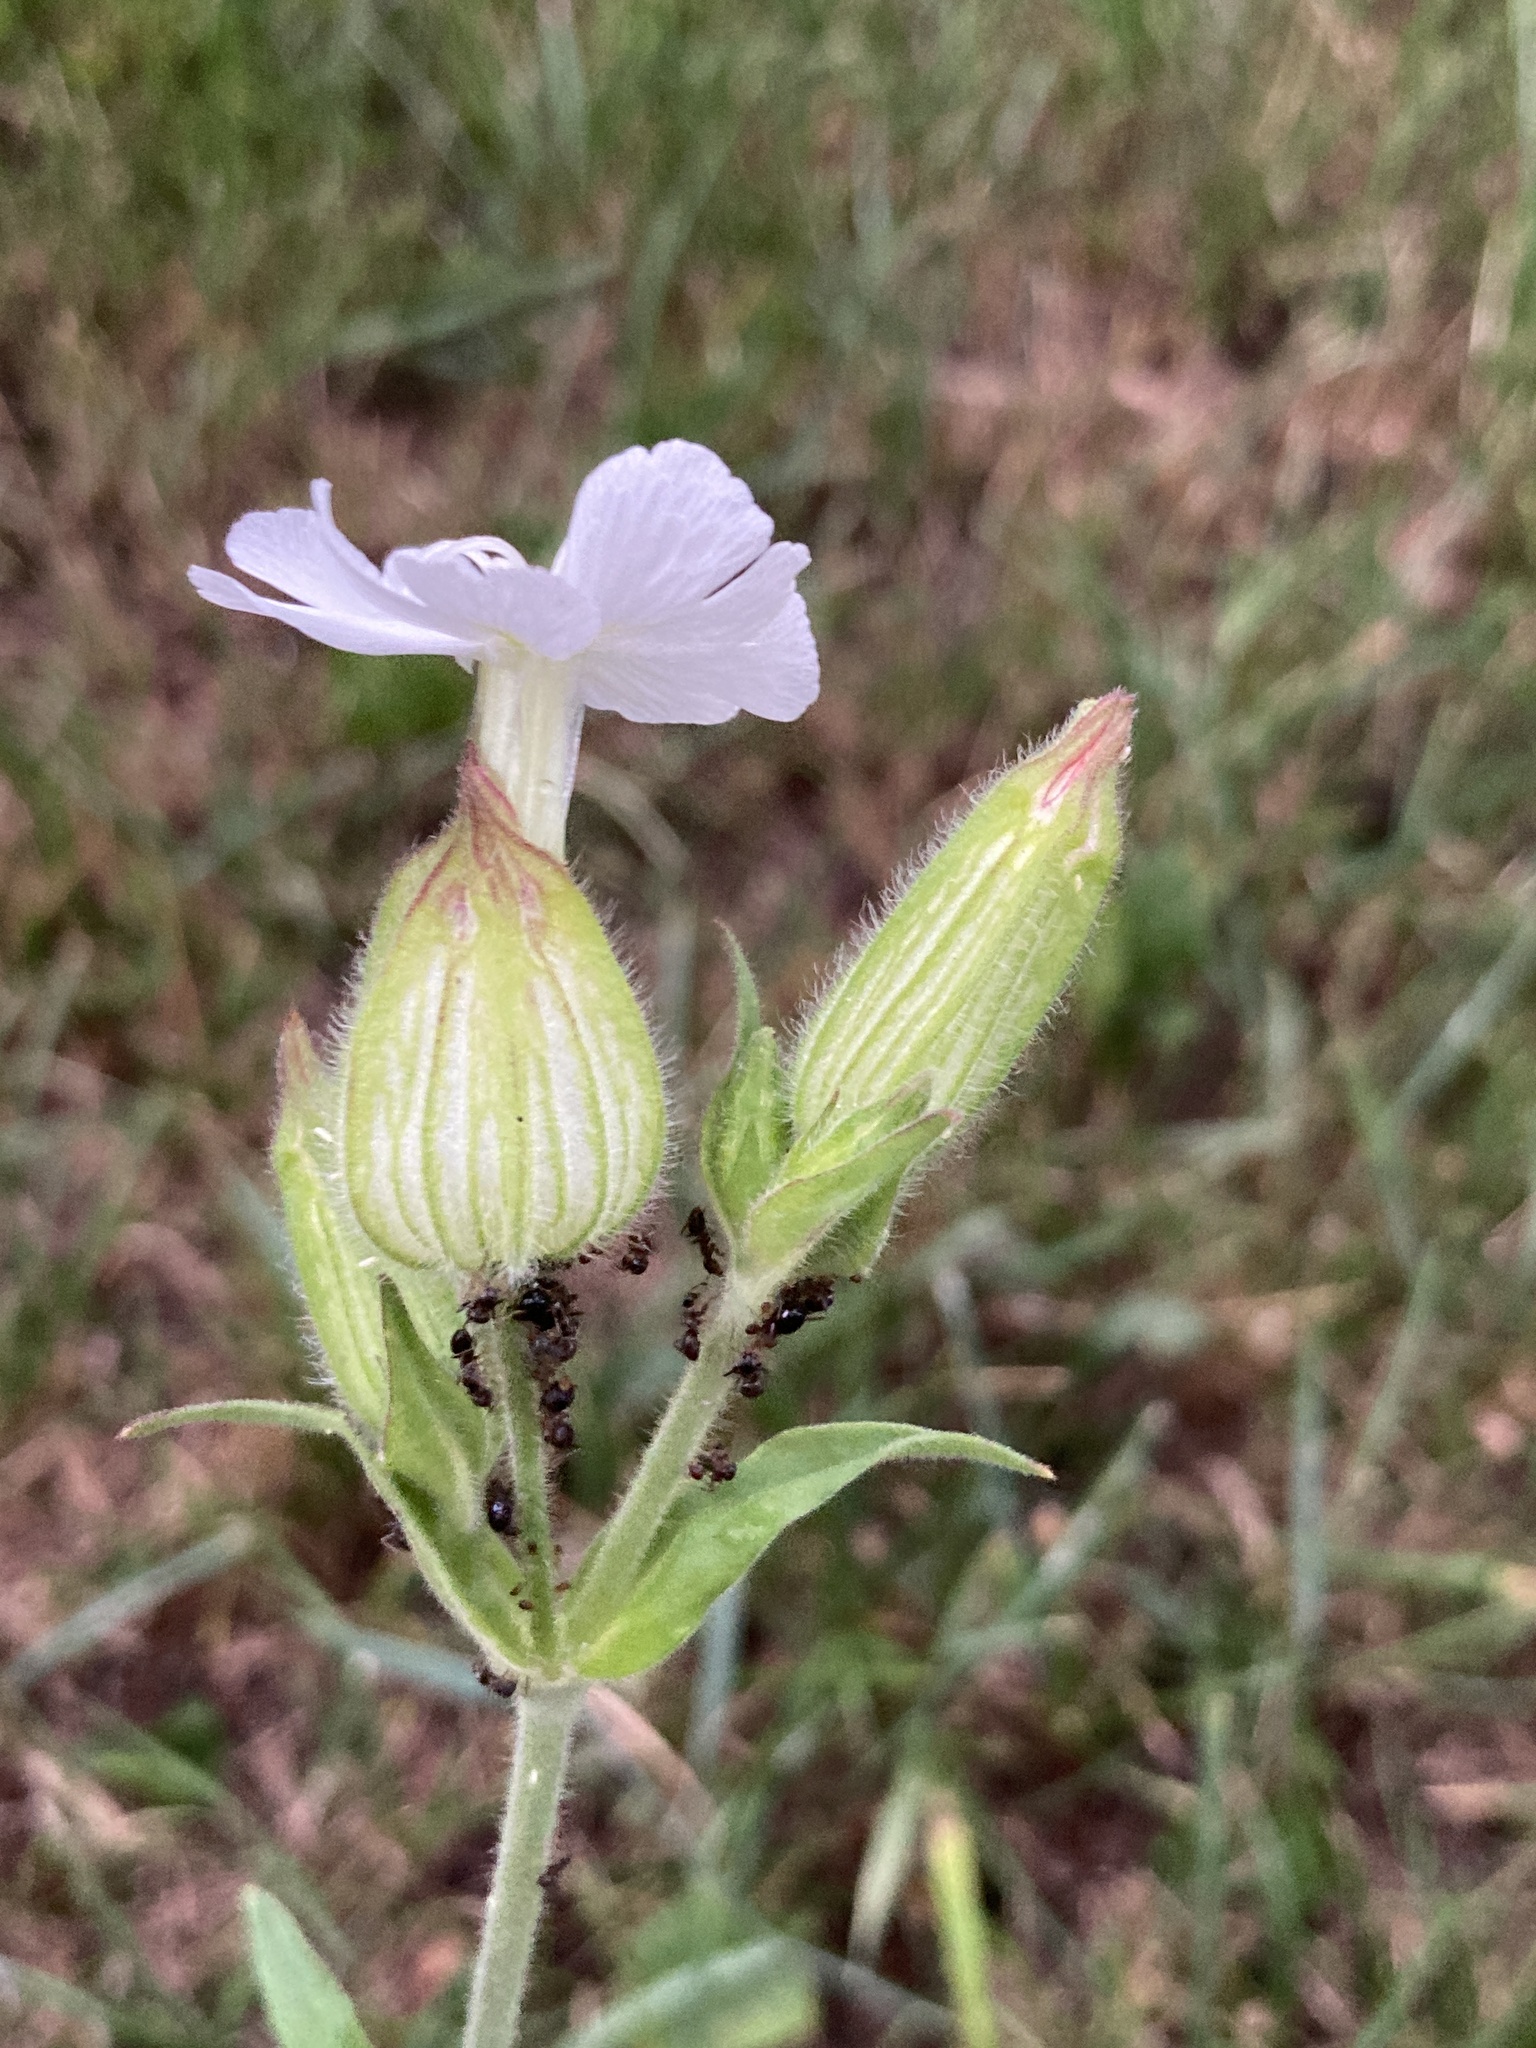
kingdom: Plantae
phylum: Tracheophyta
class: Magnoliopsida
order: Caryophyllales
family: Caryophyllaceae
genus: Silene
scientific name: Silene latifolia
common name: White campion
